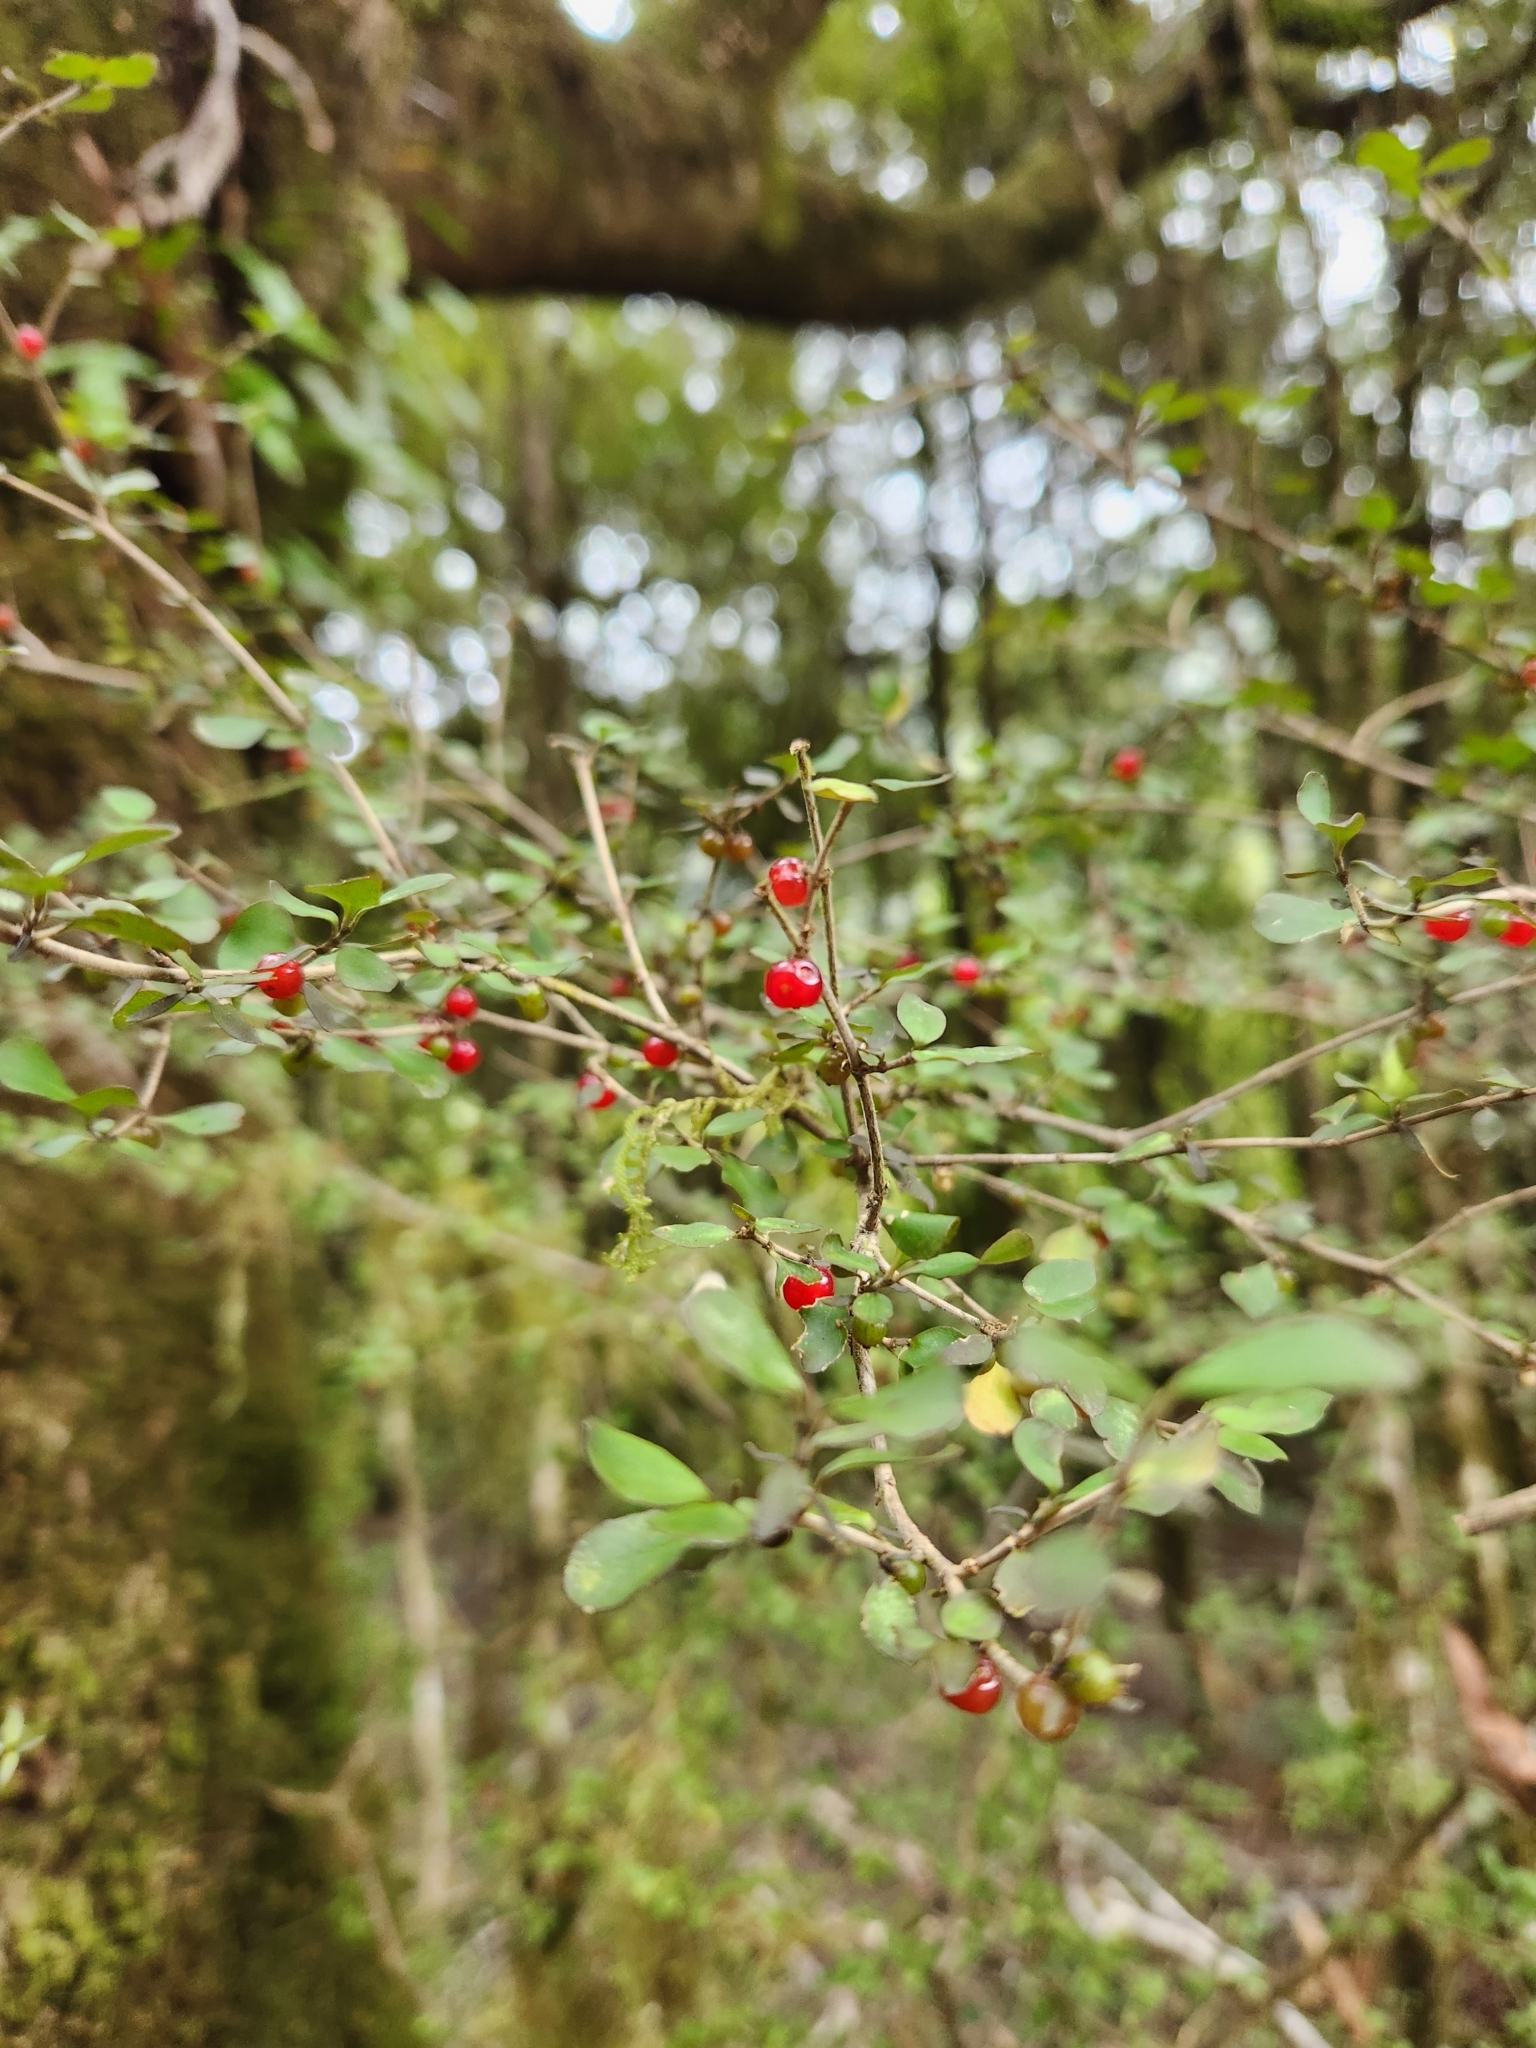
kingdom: Plantae
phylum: Tracheophyta
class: Magnoliopsida
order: Gentianales
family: Rubiaceae
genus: Coprosma
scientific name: Coprosma rhamnoides
